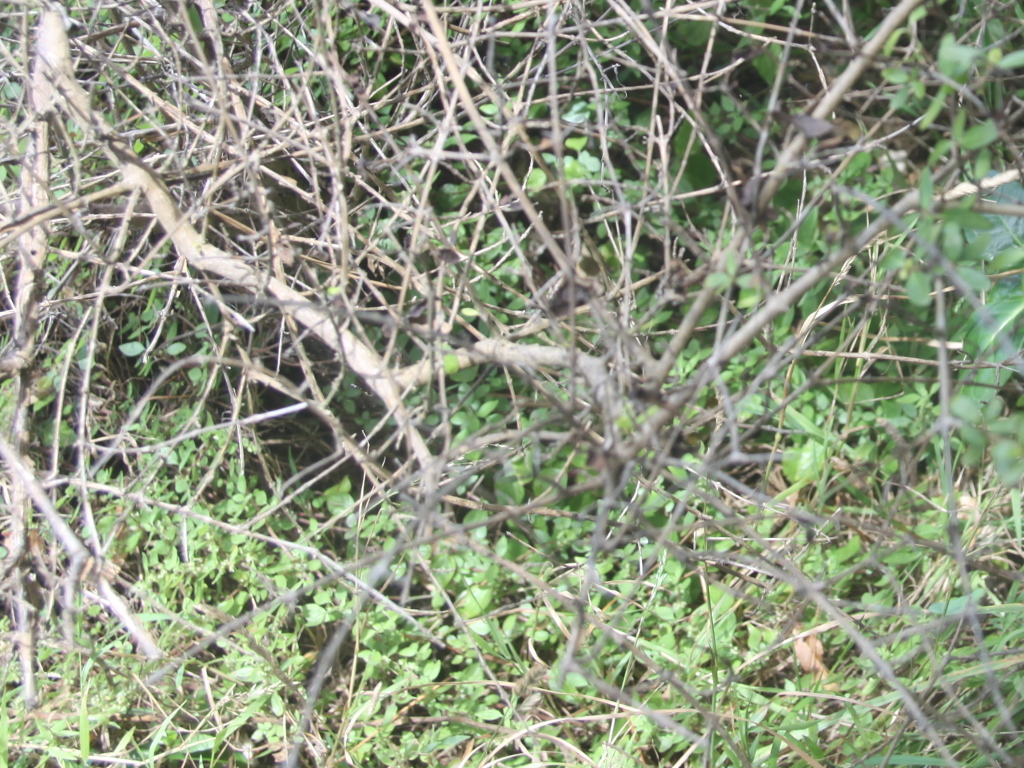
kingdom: Plantae
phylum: Tracheophyta
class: Magnoliopsida
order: Gentianales
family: Rubiaceae
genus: Coprosma
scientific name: Coprosma cunninghamii
